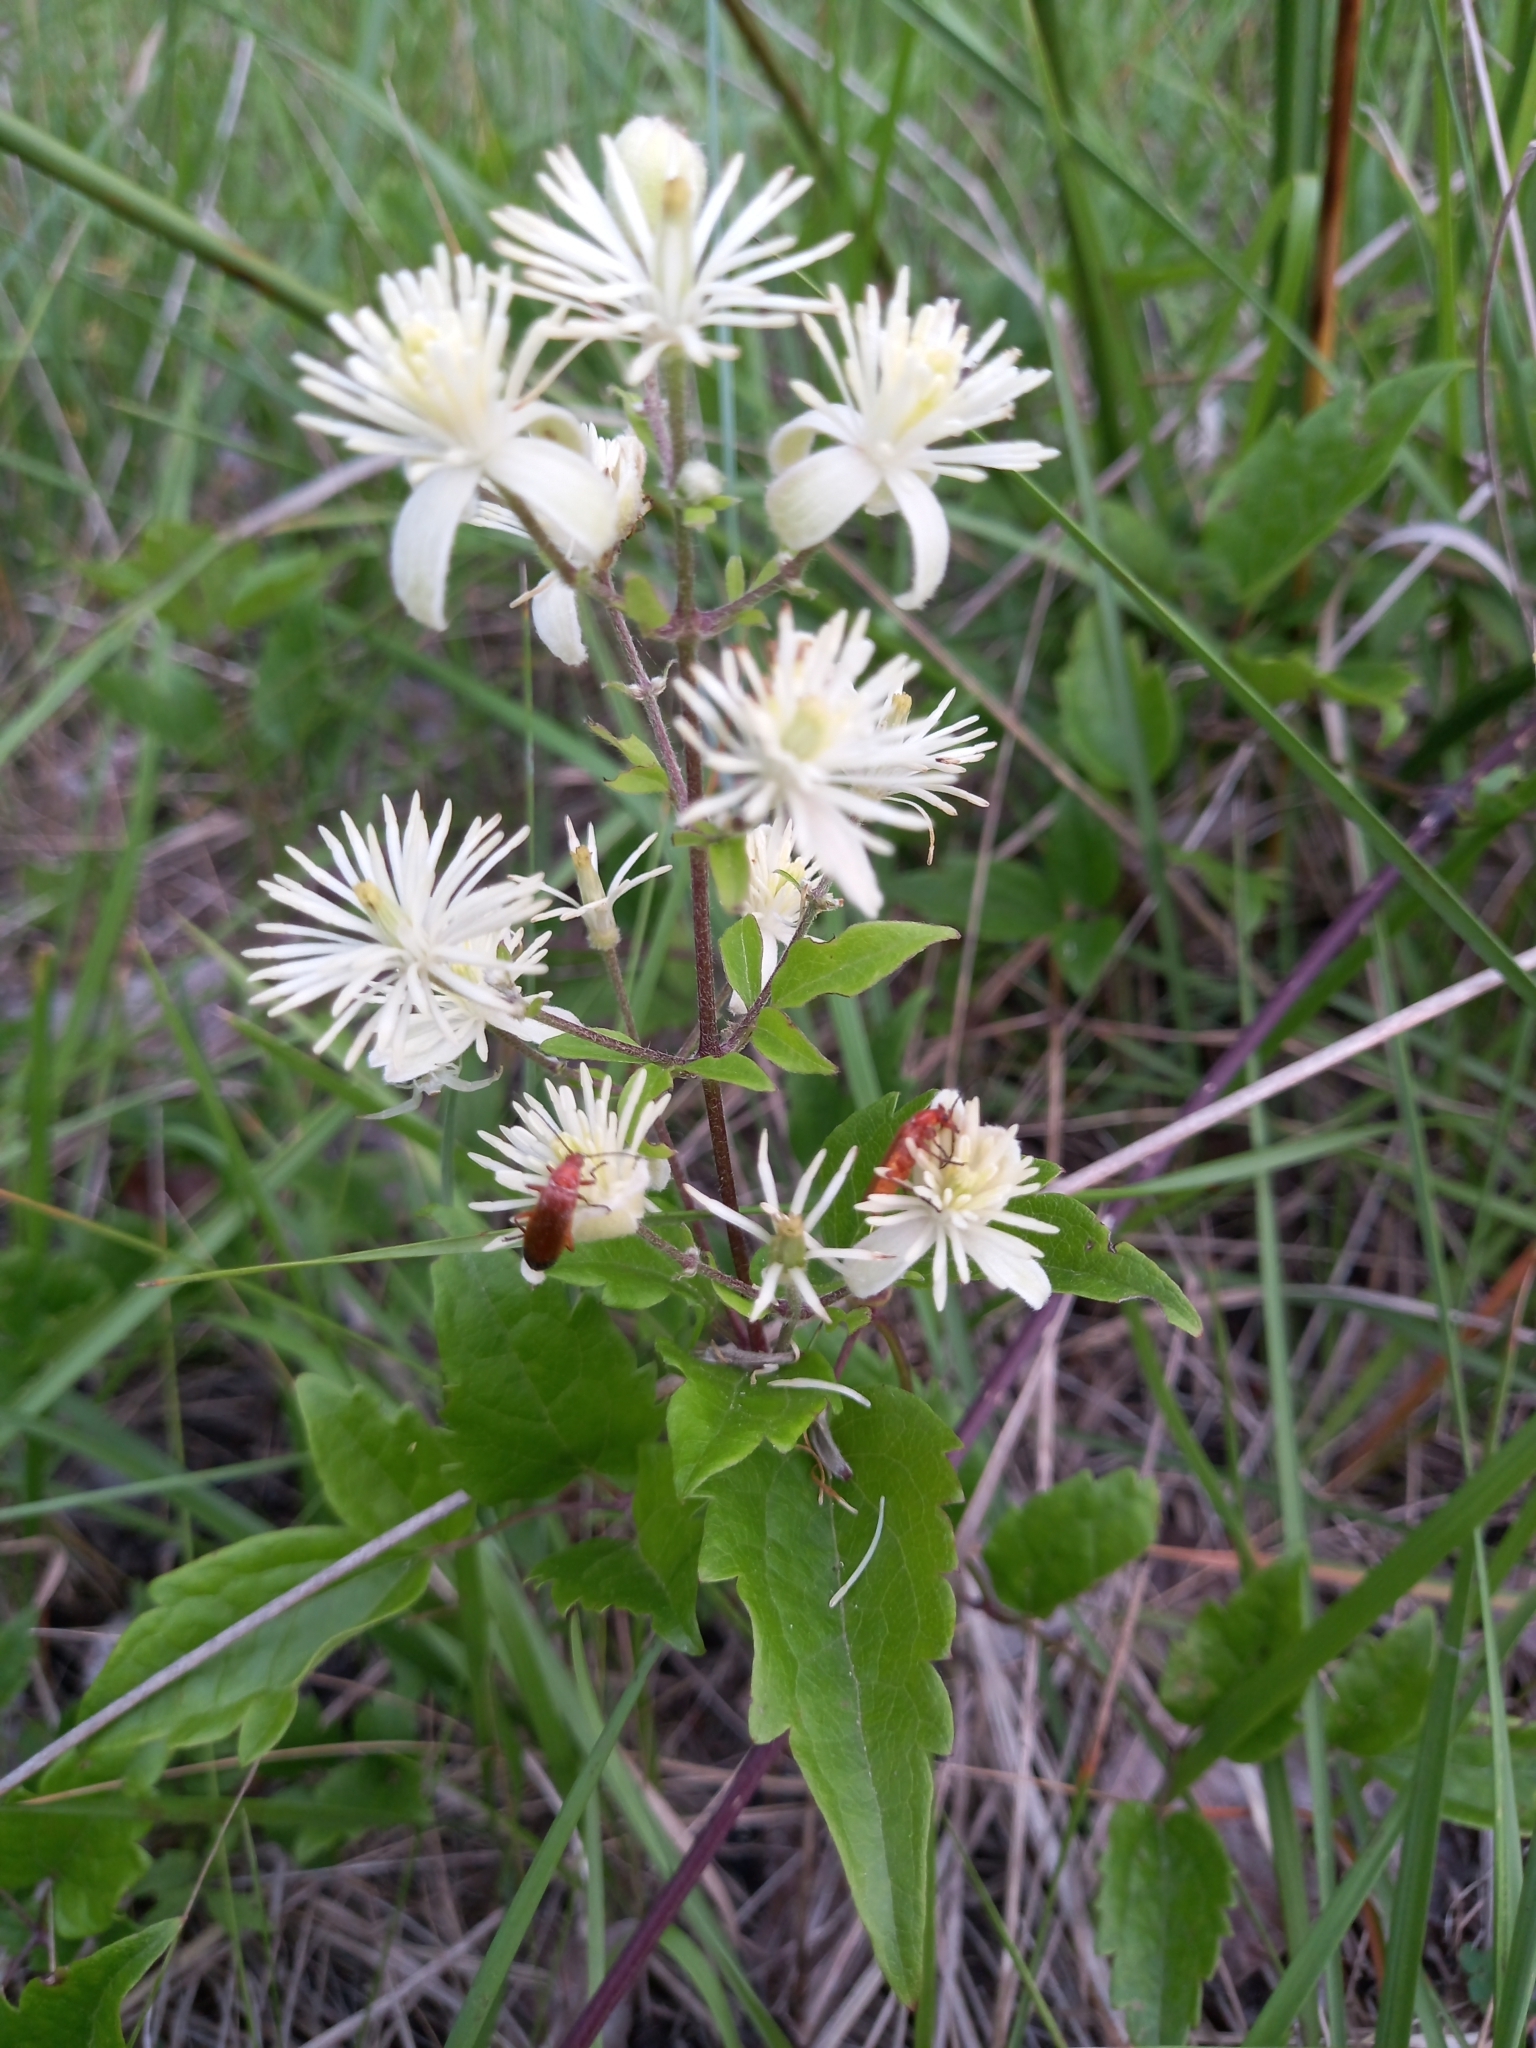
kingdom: Plantae
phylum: Tracheophyta
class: Magnoliopsida
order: Ranunculales
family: Ranunculaceae
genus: Clematis
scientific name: Clematis vitalba
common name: Evergreen clematis
